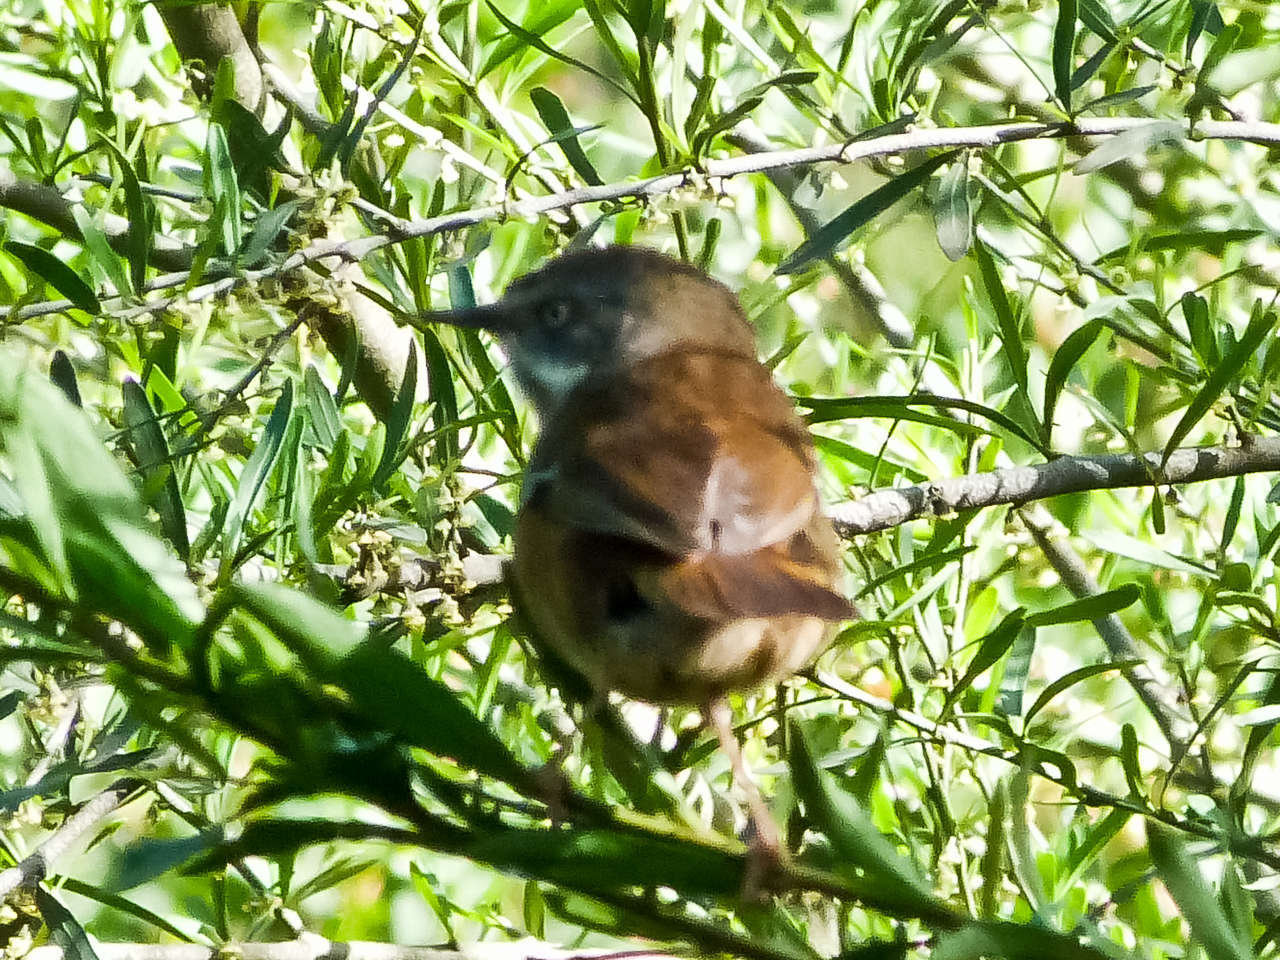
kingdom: Animalia
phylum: Chordata
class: Aves
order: Passeriformes
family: Acanthizidae
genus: Sericornis
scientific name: Sericornis frontalis
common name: White-browed scrubwren
